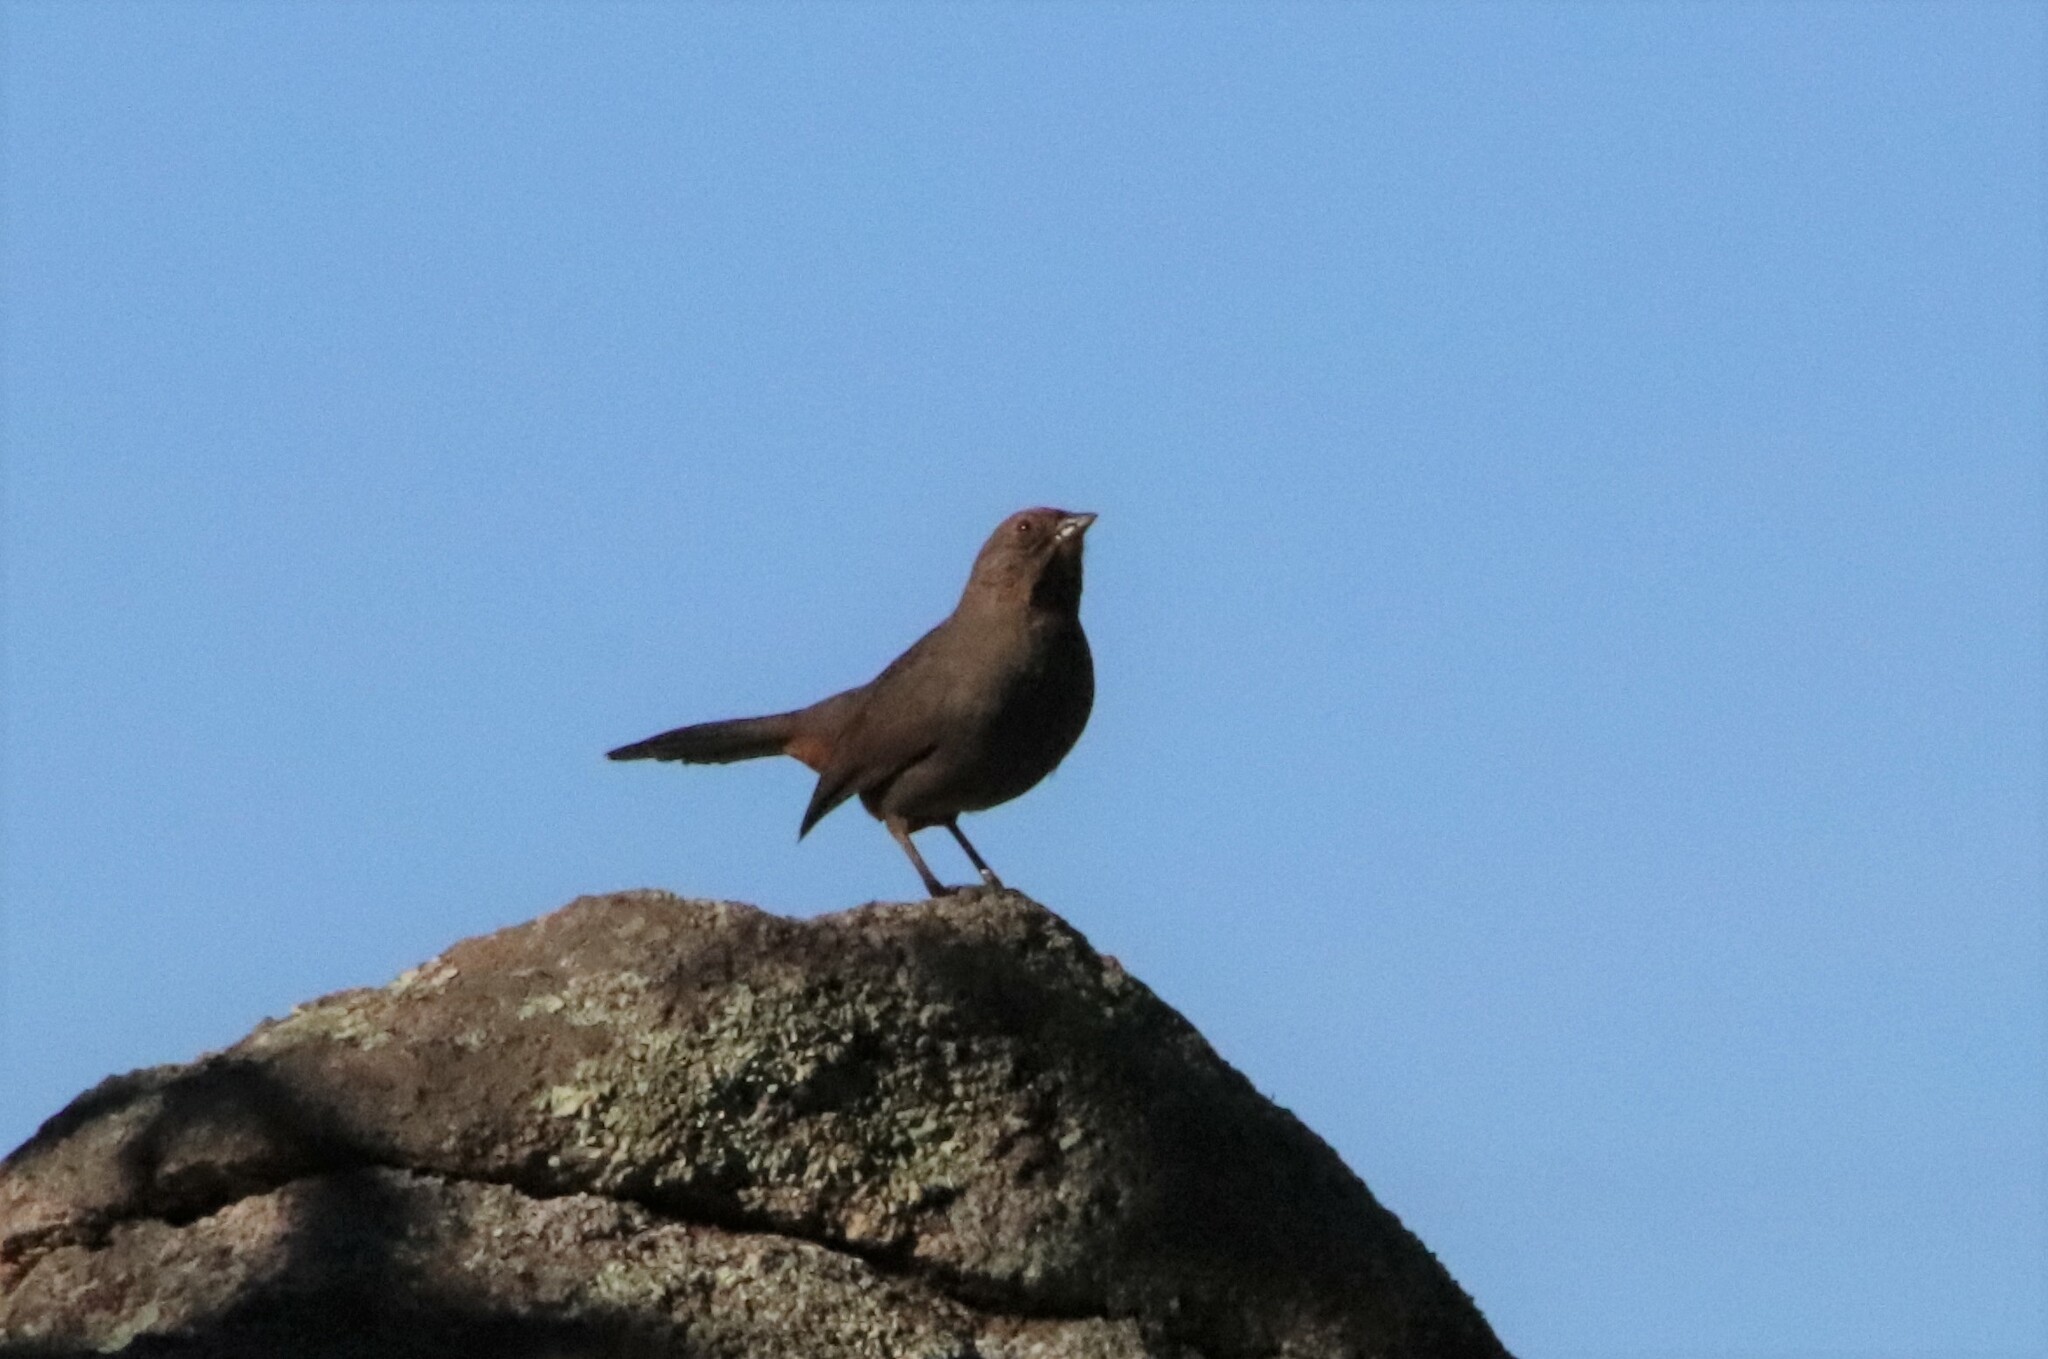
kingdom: Animalia
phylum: Chordata
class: Aves
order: Passeriformes
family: Passerellidae
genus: Melozone
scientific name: Melozone crissalis
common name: California towhee
